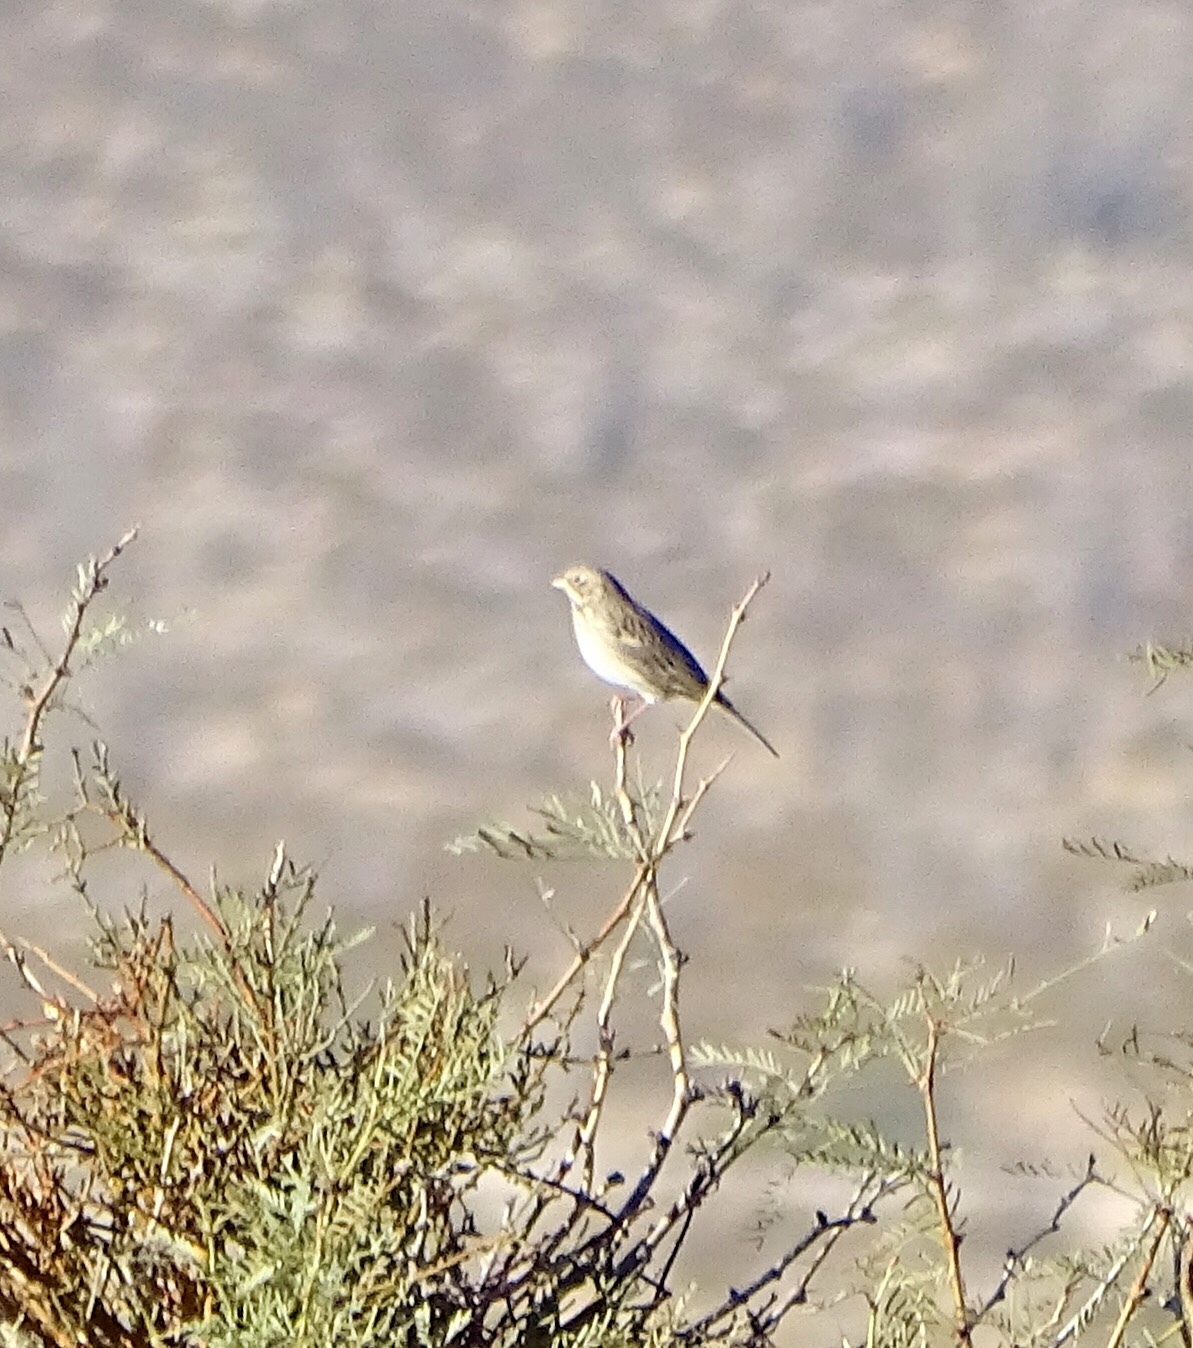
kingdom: Animalia
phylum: Chordata
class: Aves
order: Passeriformes
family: Passerellidae
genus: Pooecetes
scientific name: Pooecetes gramineus
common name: Vesper sparrow
